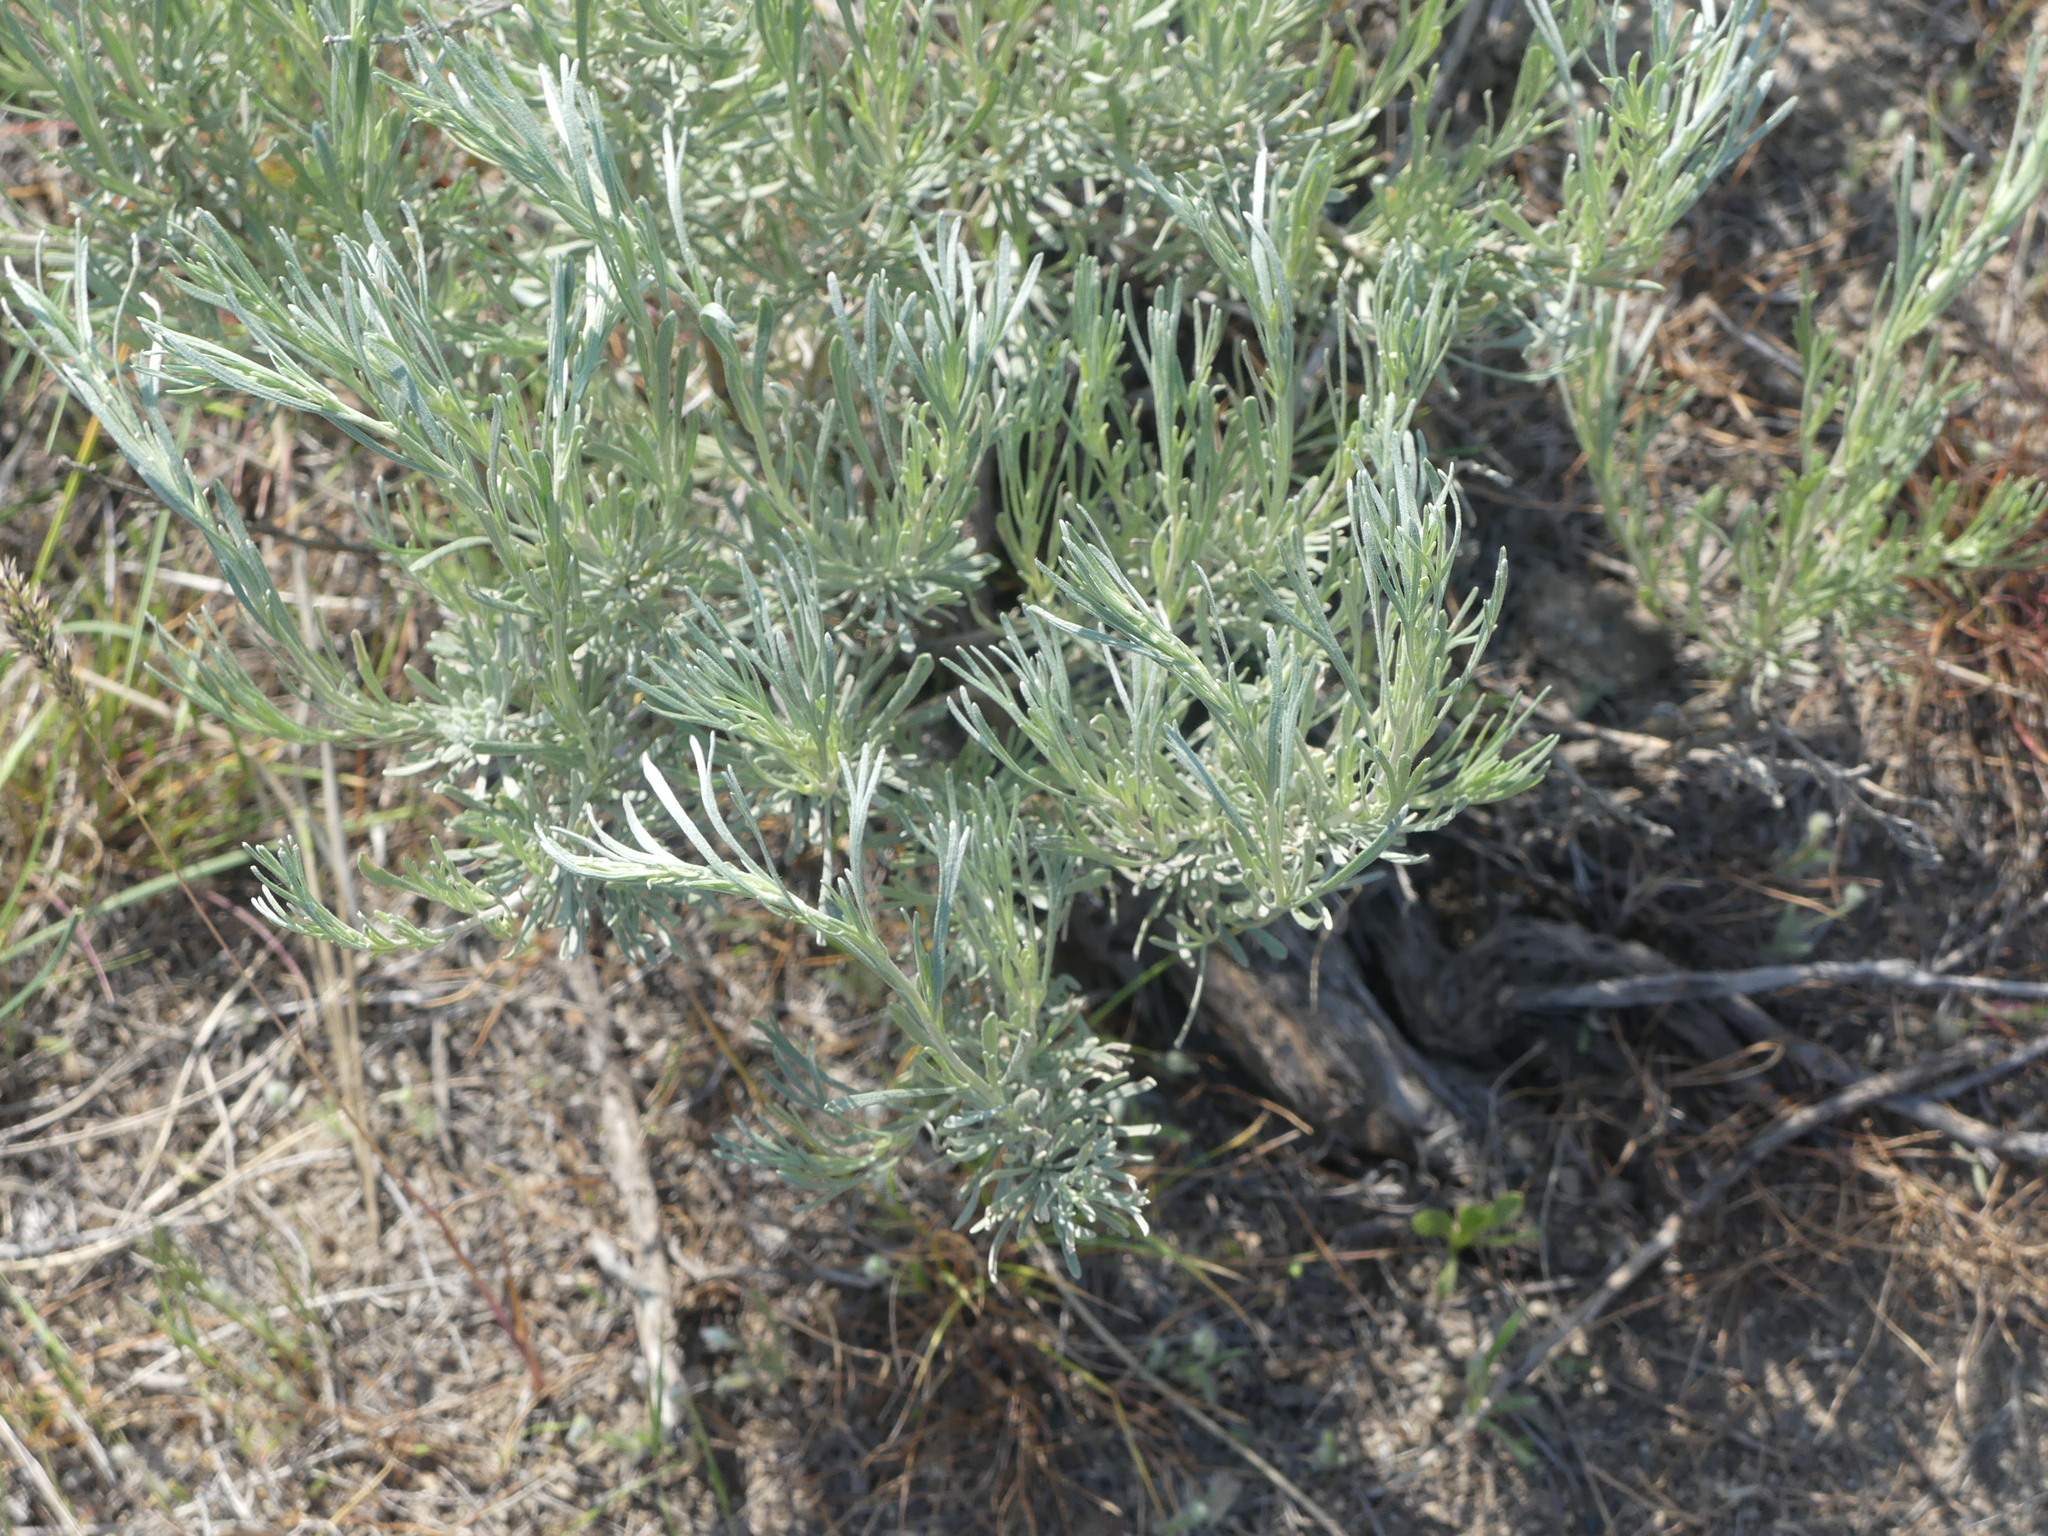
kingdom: Plantae
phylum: Tracheophyta
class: Magnoliopsida
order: Asterales
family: Asteraceae
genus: Artemisia
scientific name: Artemisia tripartita
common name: Three-tip sagebrush
